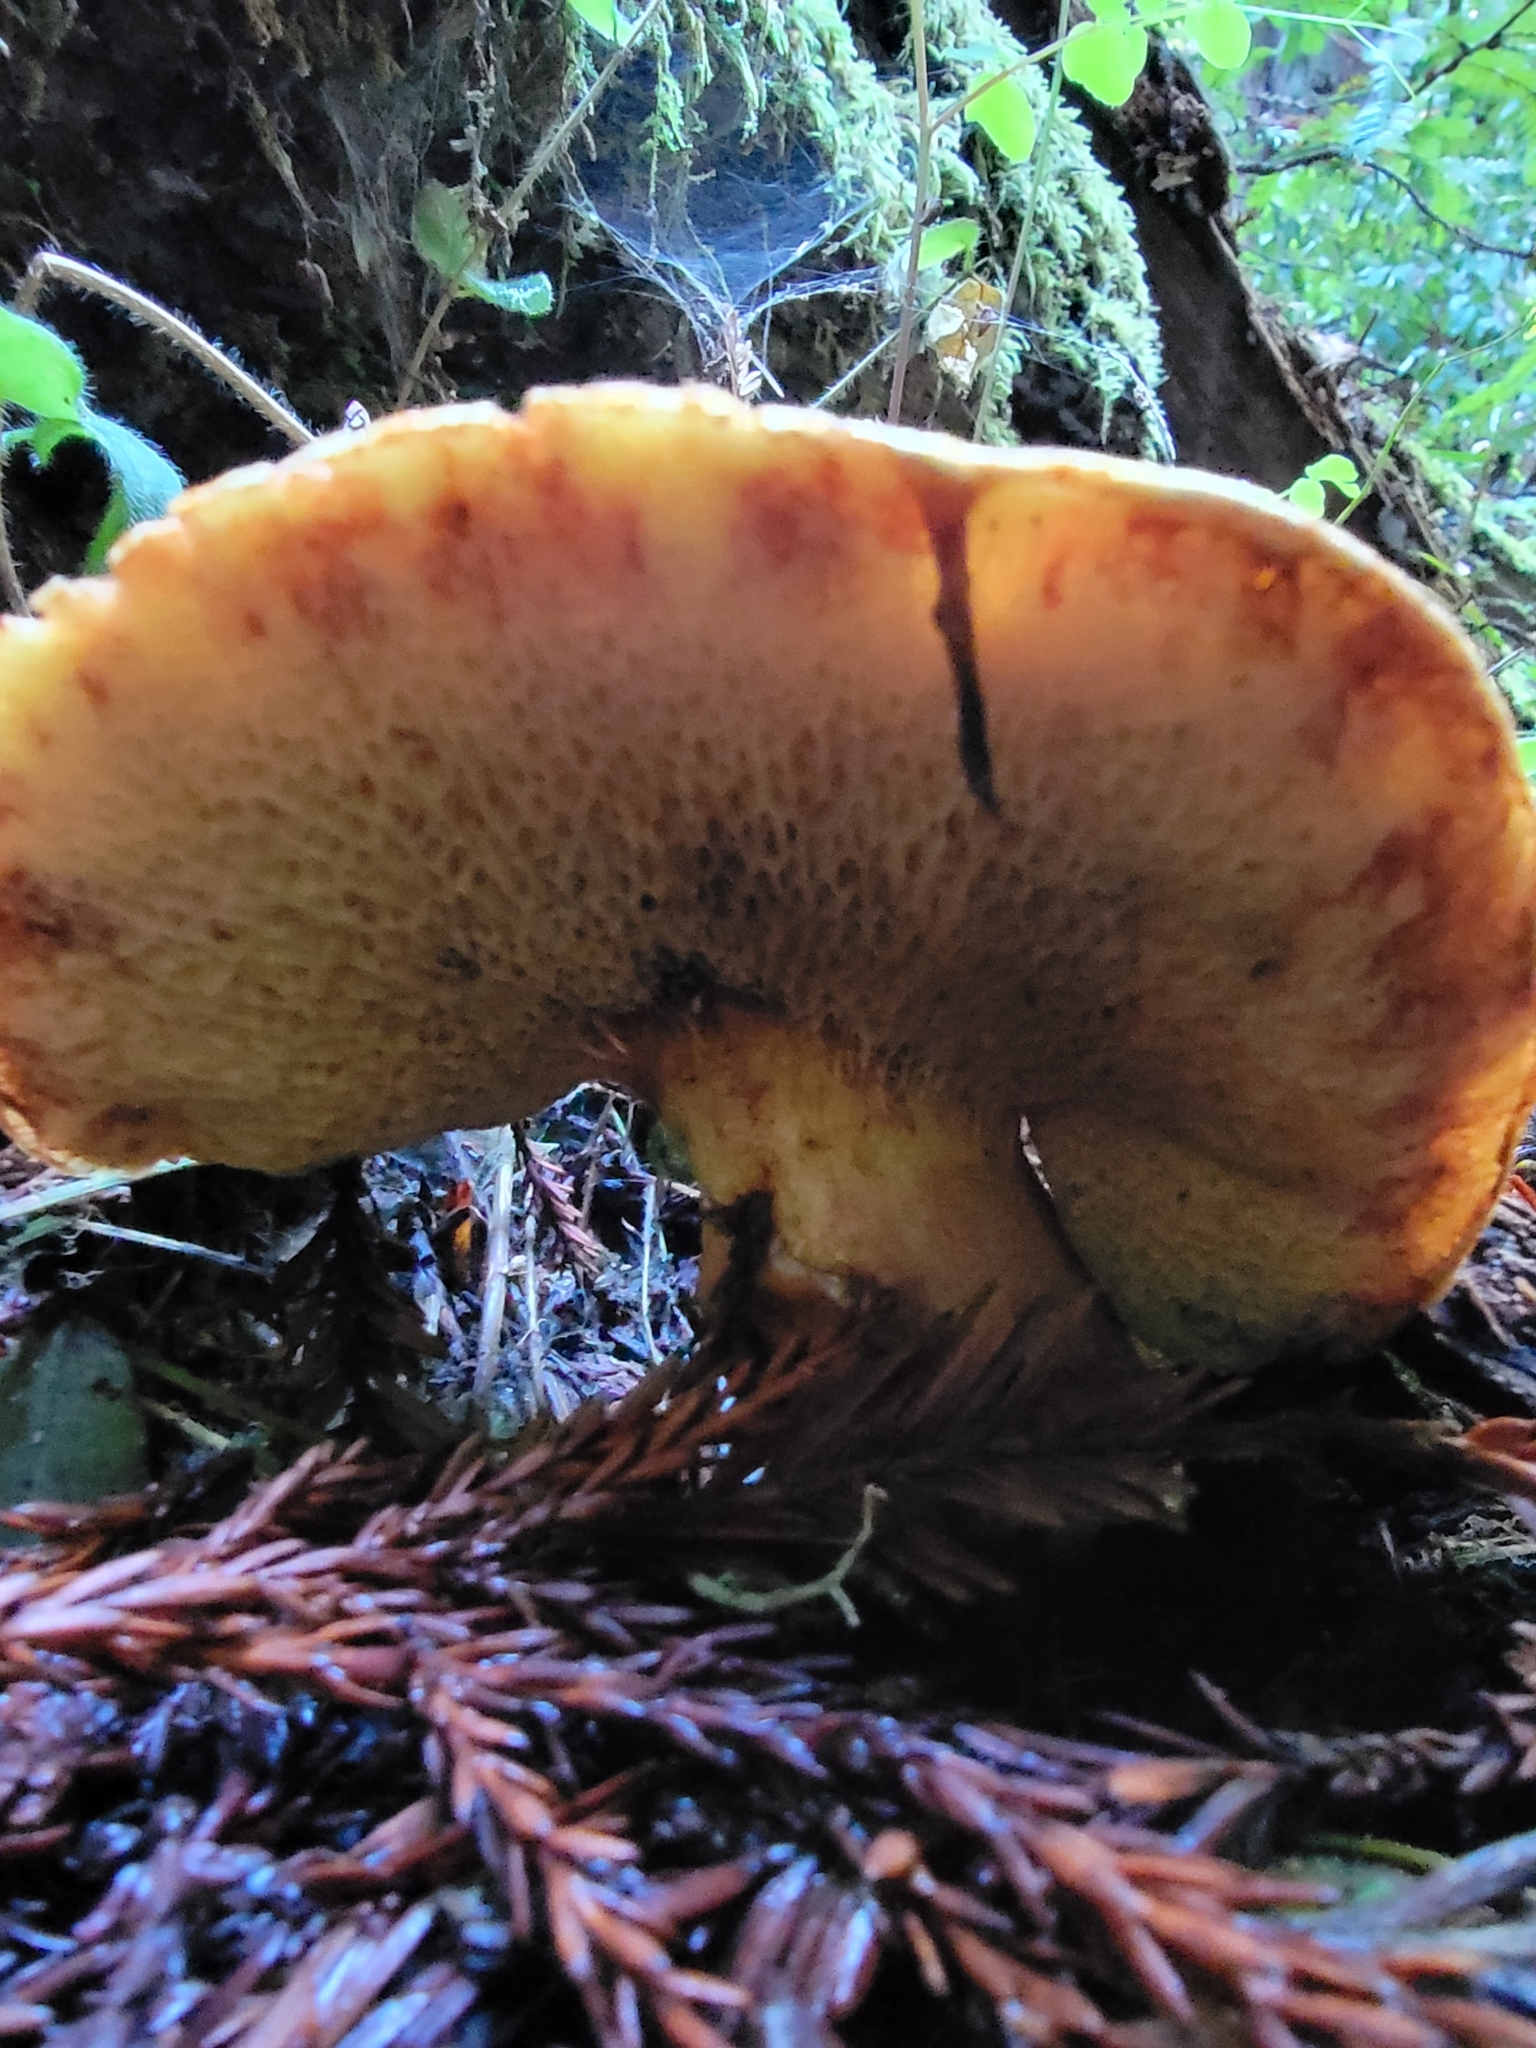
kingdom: Fungi
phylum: Basidiomycota
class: Agaricomycetes
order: Boletales
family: Suillaceae
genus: Suillus
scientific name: Suillus caerulescens
